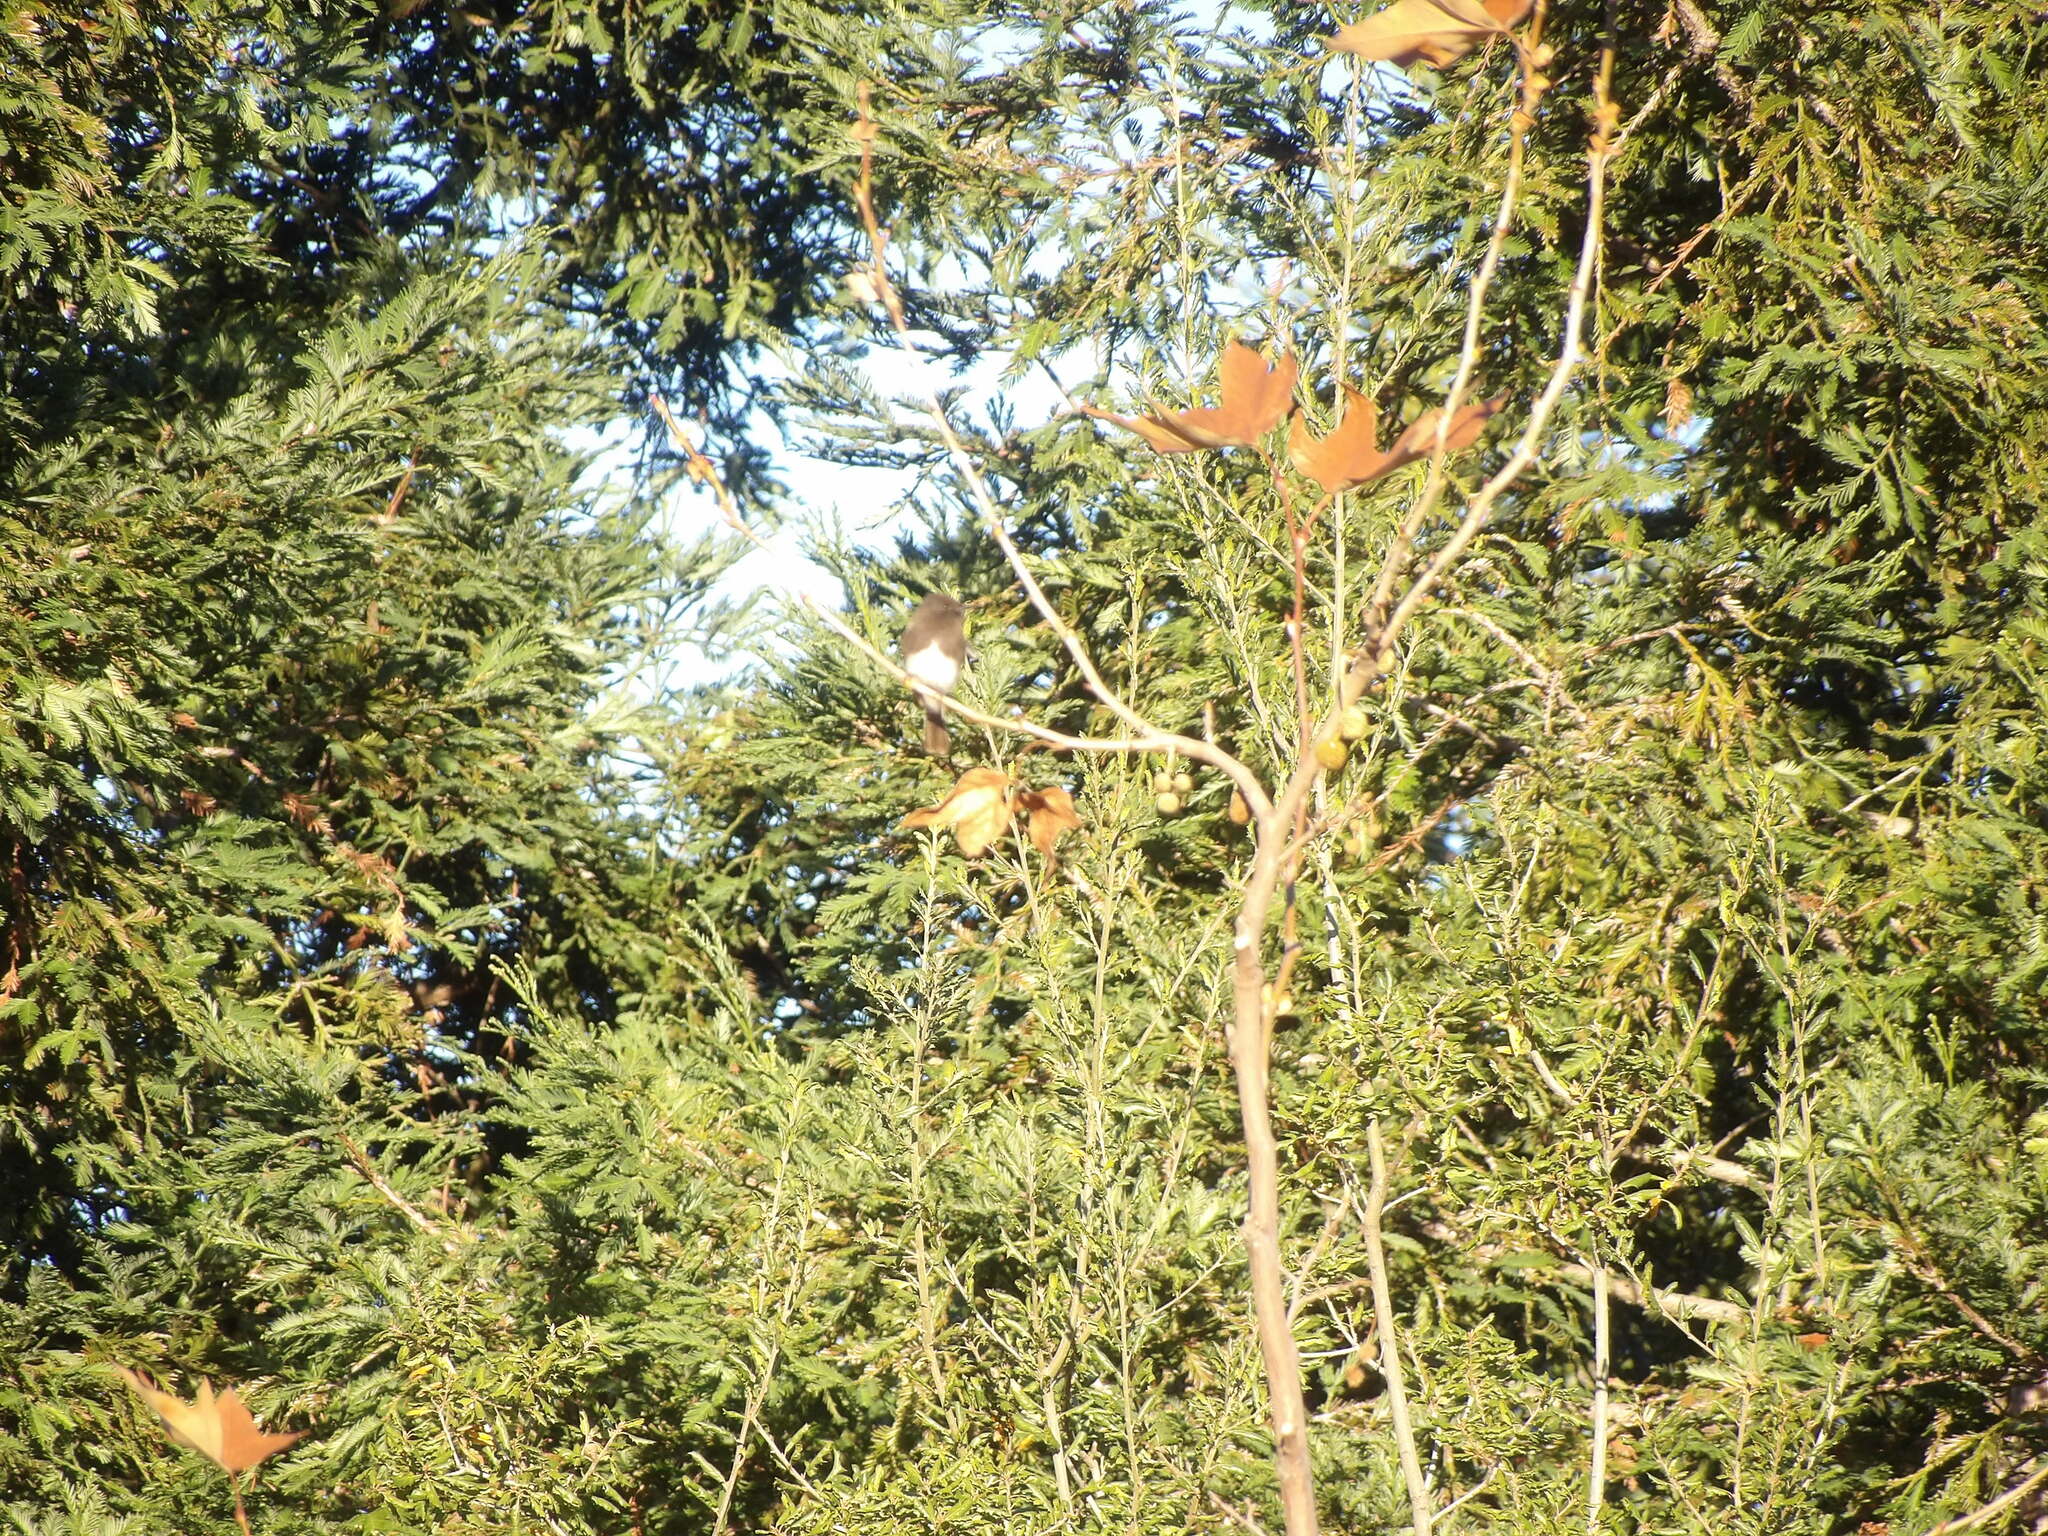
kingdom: Animalia
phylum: Chordata
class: Aves
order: Passeriformes
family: Tyrannidae
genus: Sayornis
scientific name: Sayornis nigricans
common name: Black phoebe
